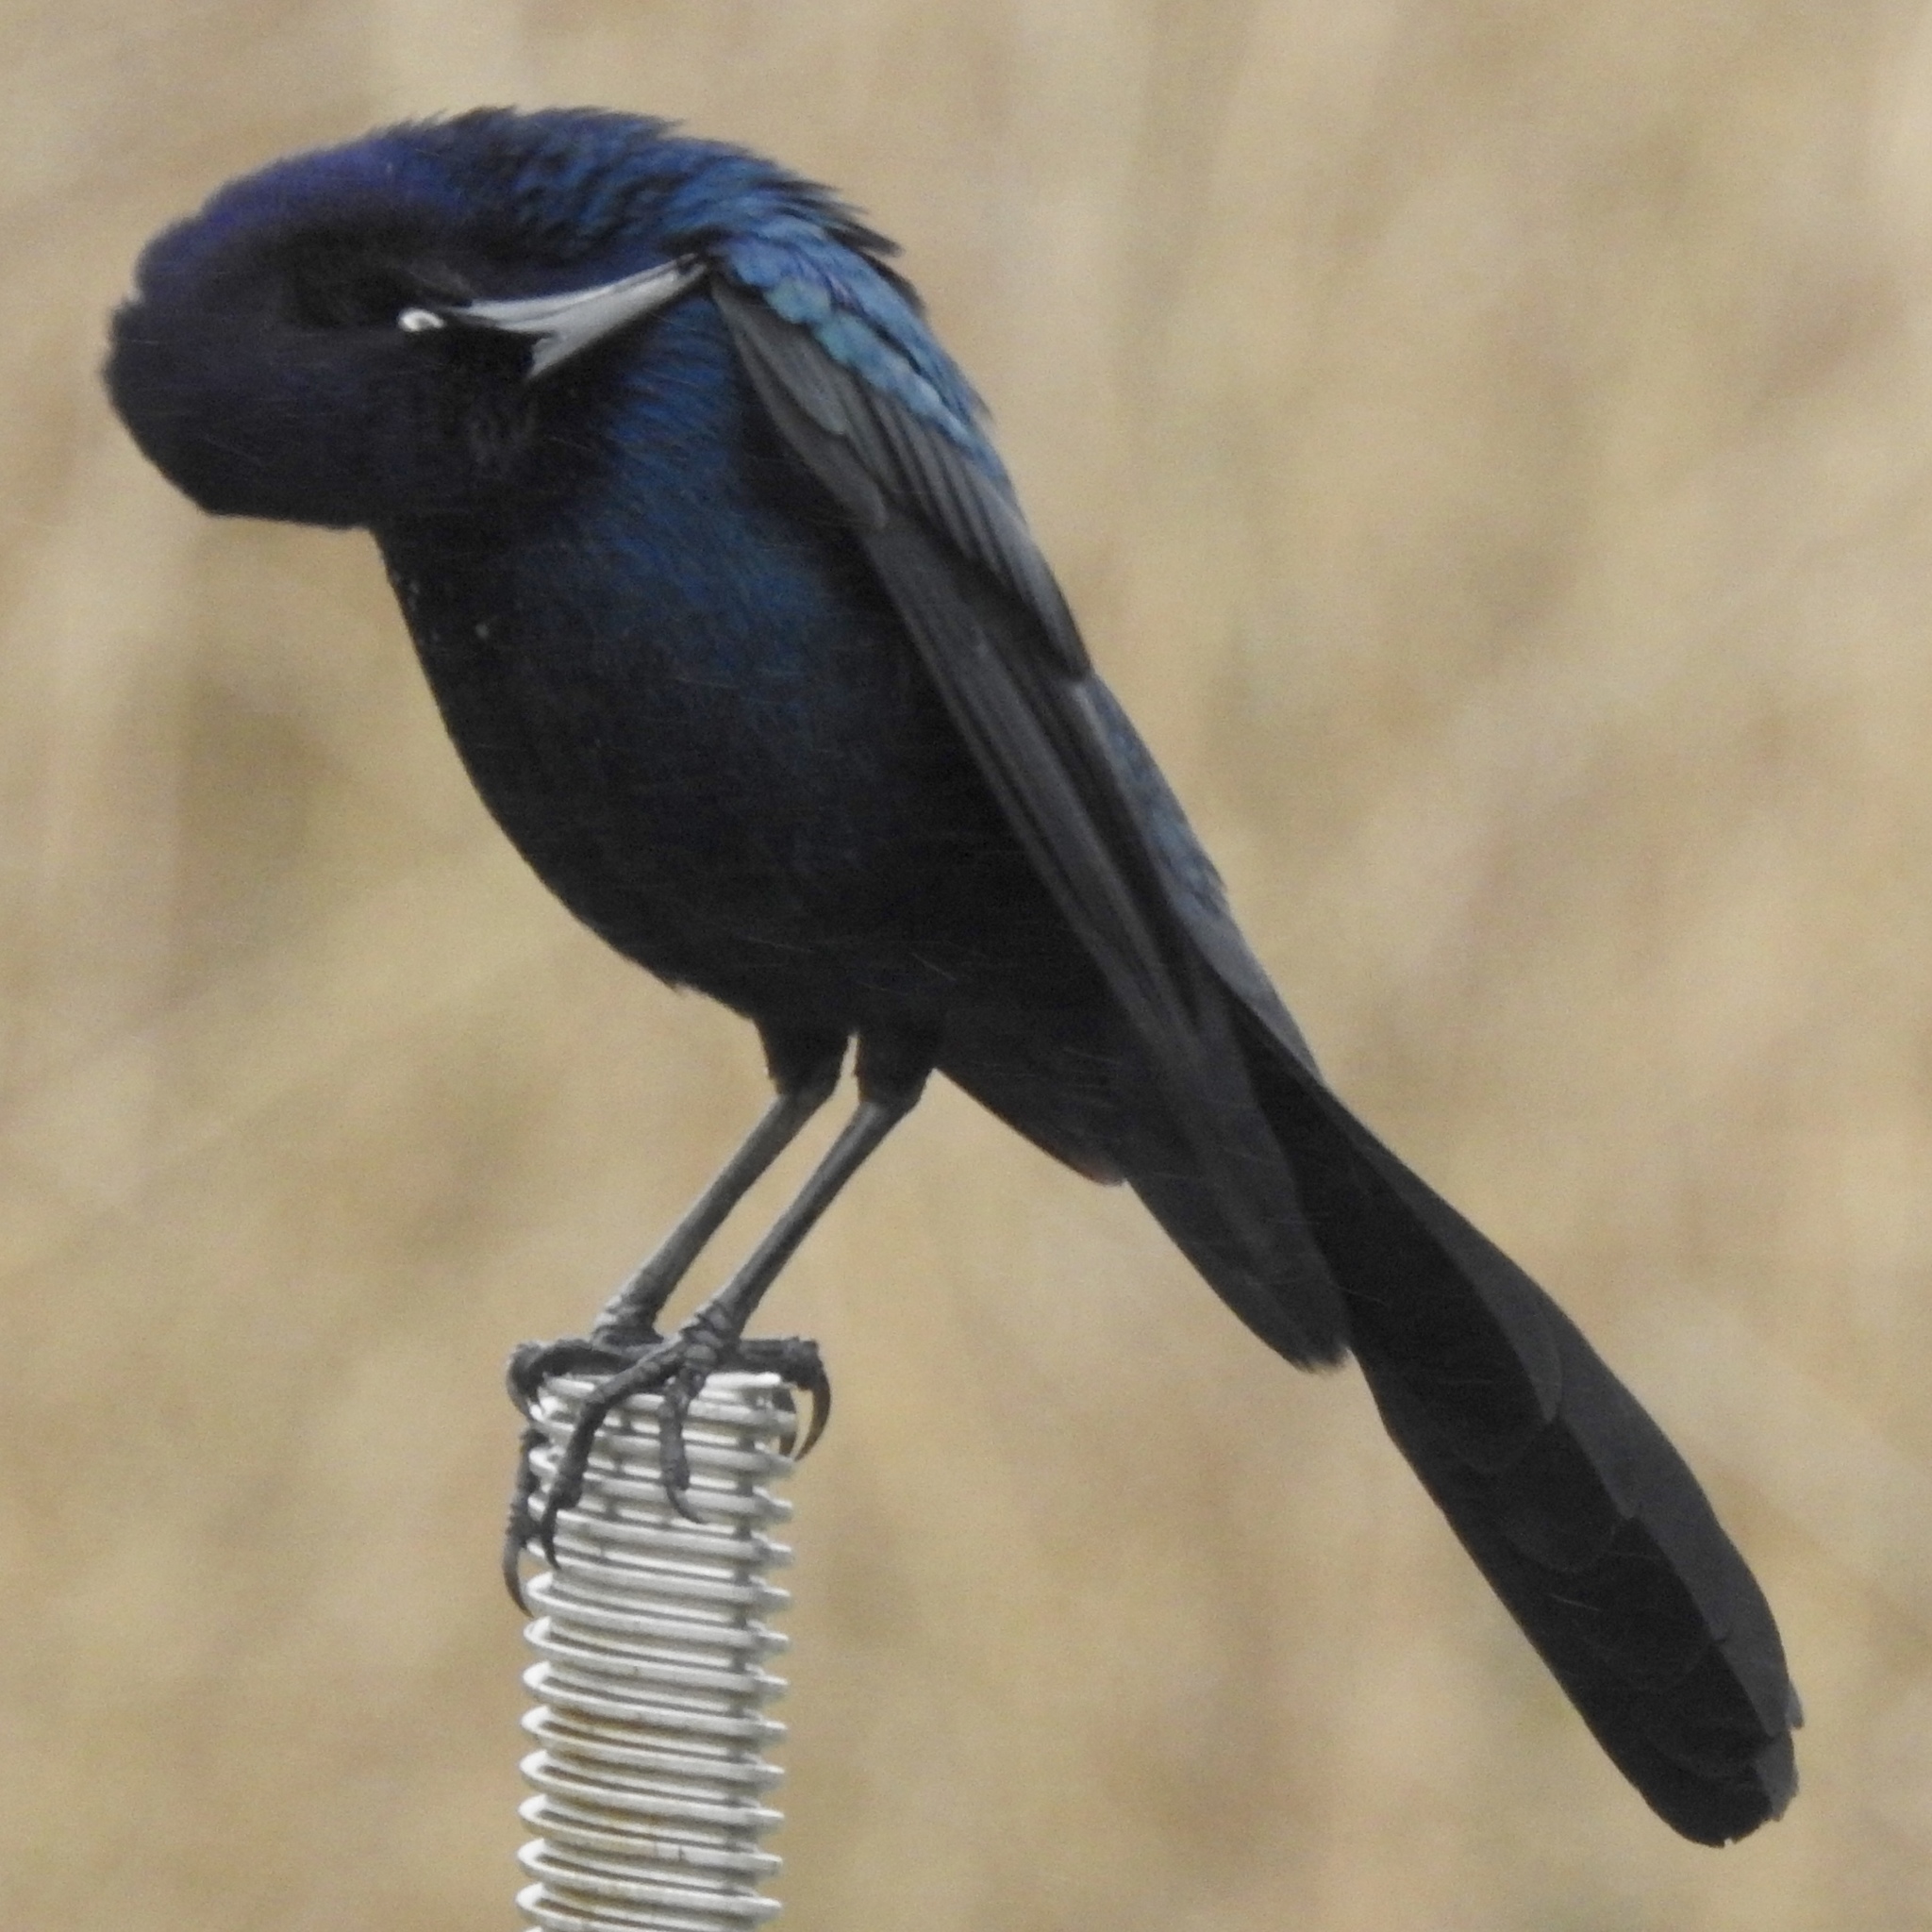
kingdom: Animalia
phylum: Chordata
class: Aves
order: Passeriformes
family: Icteridae
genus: Quiscalus
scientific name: Quiscalus major
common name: Boat-tailed grackle
